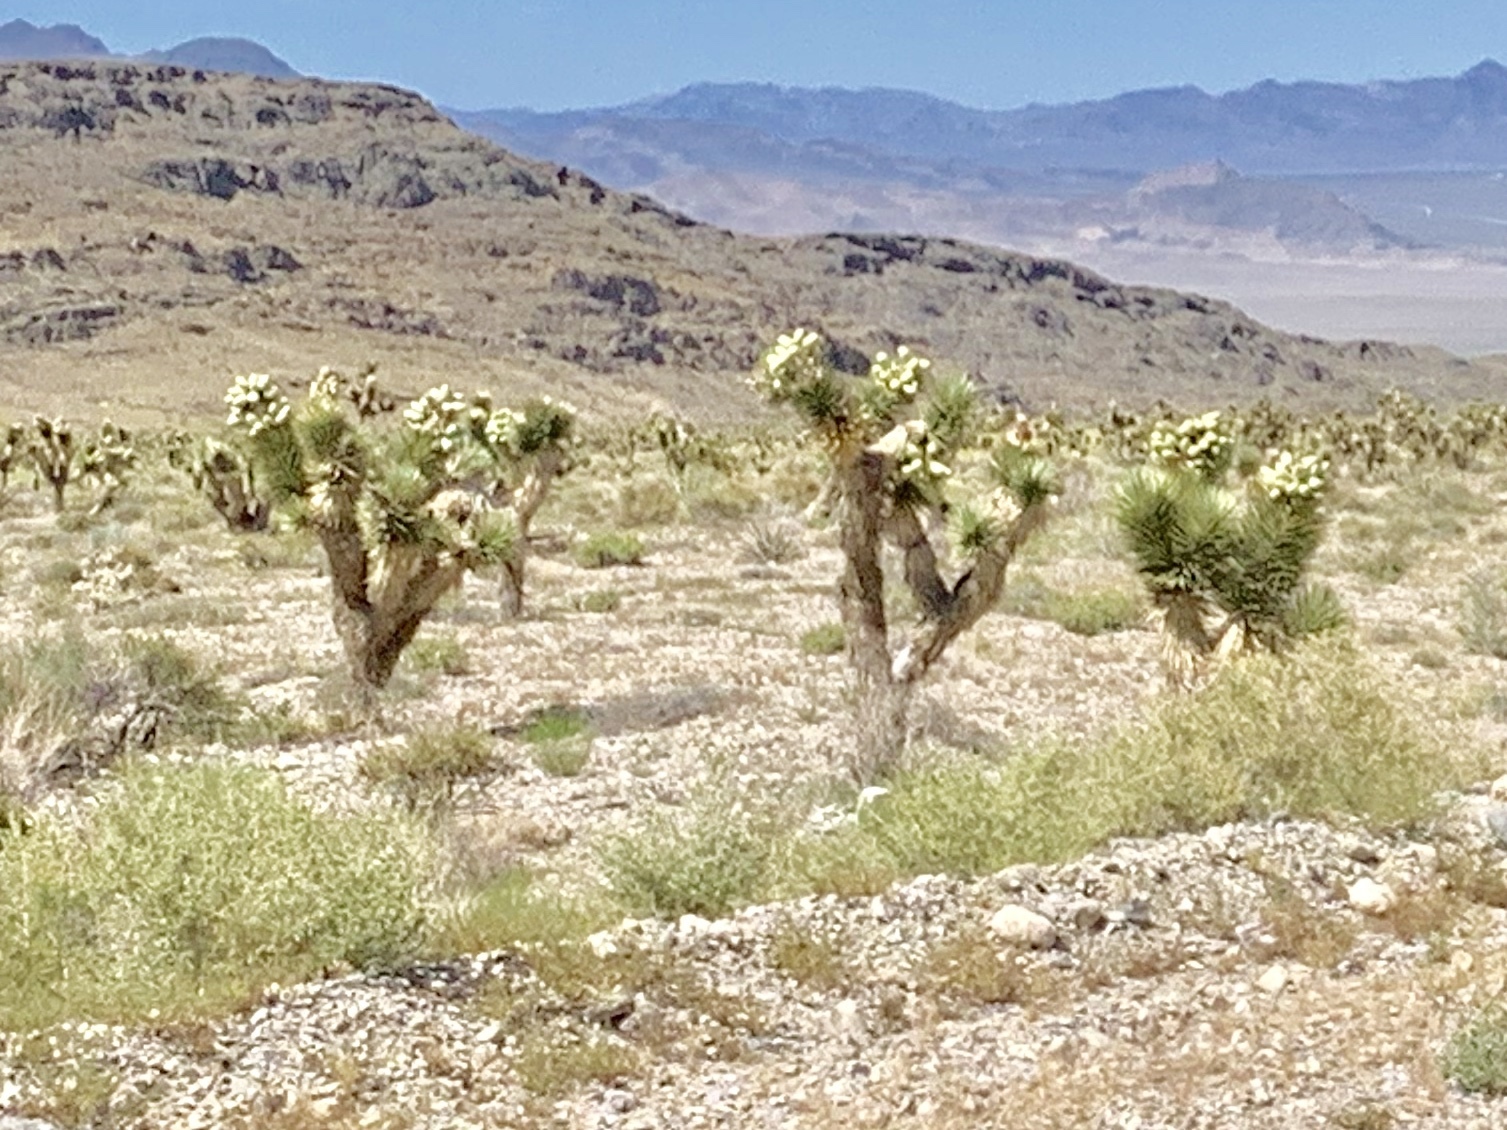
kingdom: Plantae
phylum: Tracheophyta
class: Liliopsida
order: Asparagales
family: Asparagaceae
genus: Yucca
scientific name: Yucca brevifolia
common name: Joshua tree
